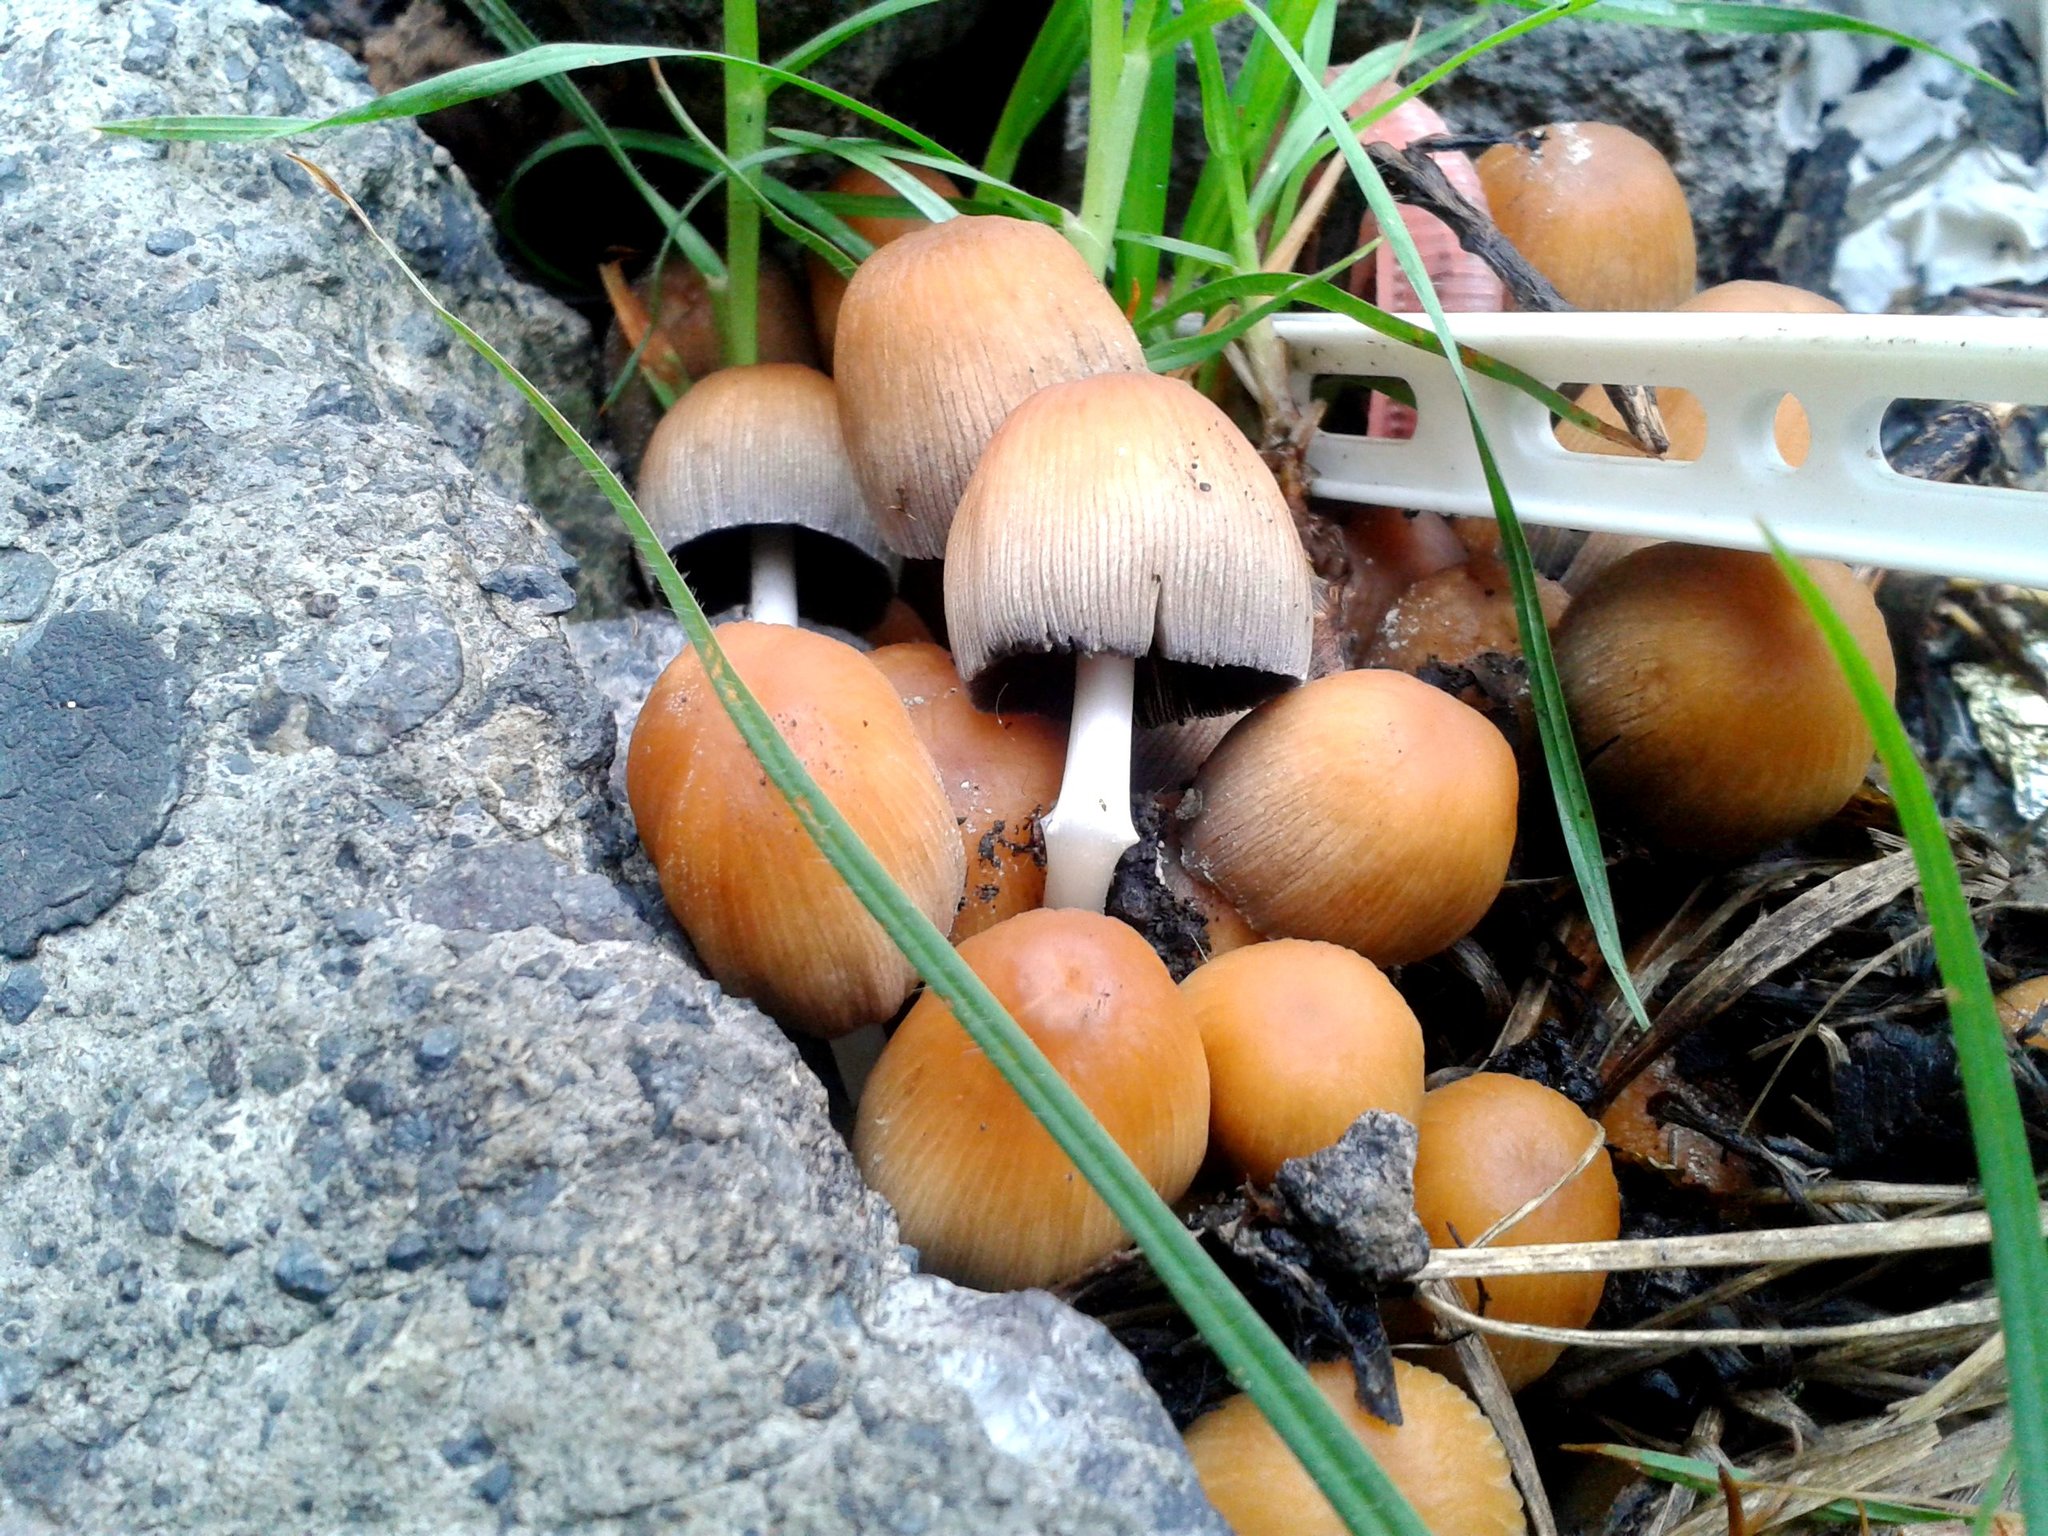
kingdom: Fungi
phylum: Basidiomycota
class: Agaricomycetes
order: Agaricales
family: Psathyrellaceae
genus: Coprinellus
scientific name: Coprinellus micaceus
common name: Glistening ink-cap
